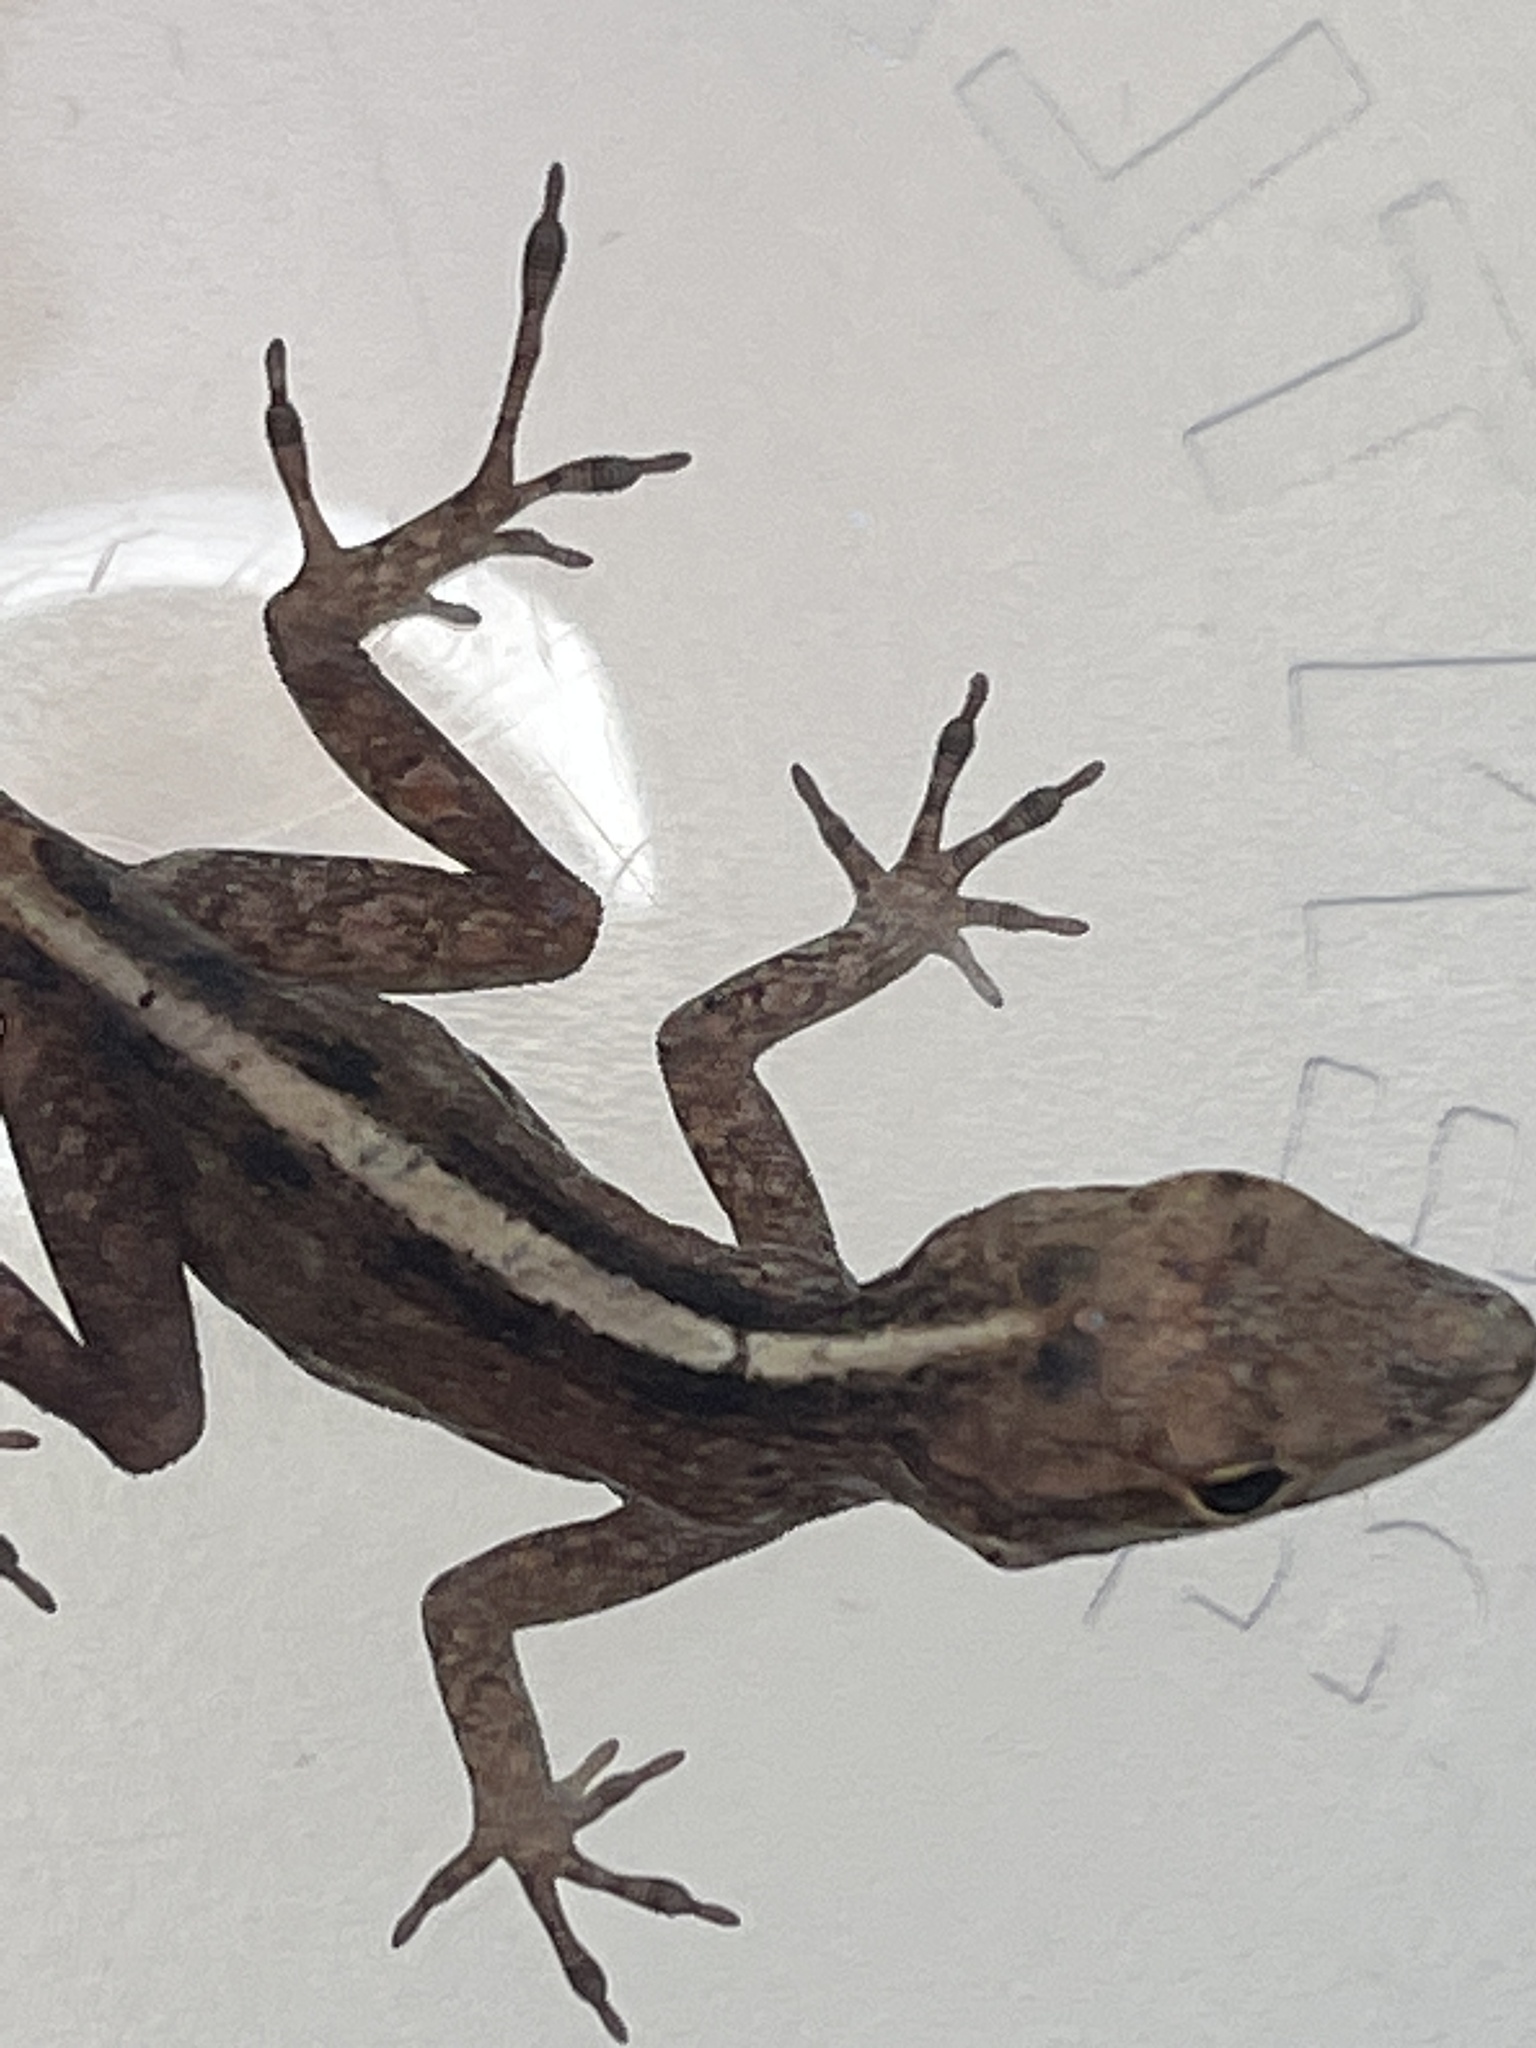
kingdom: Animalia
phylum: Chordata
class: Squamata
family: Dactyloidae
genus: Anolis
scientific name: Anolis sagrei
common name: Brown anole
